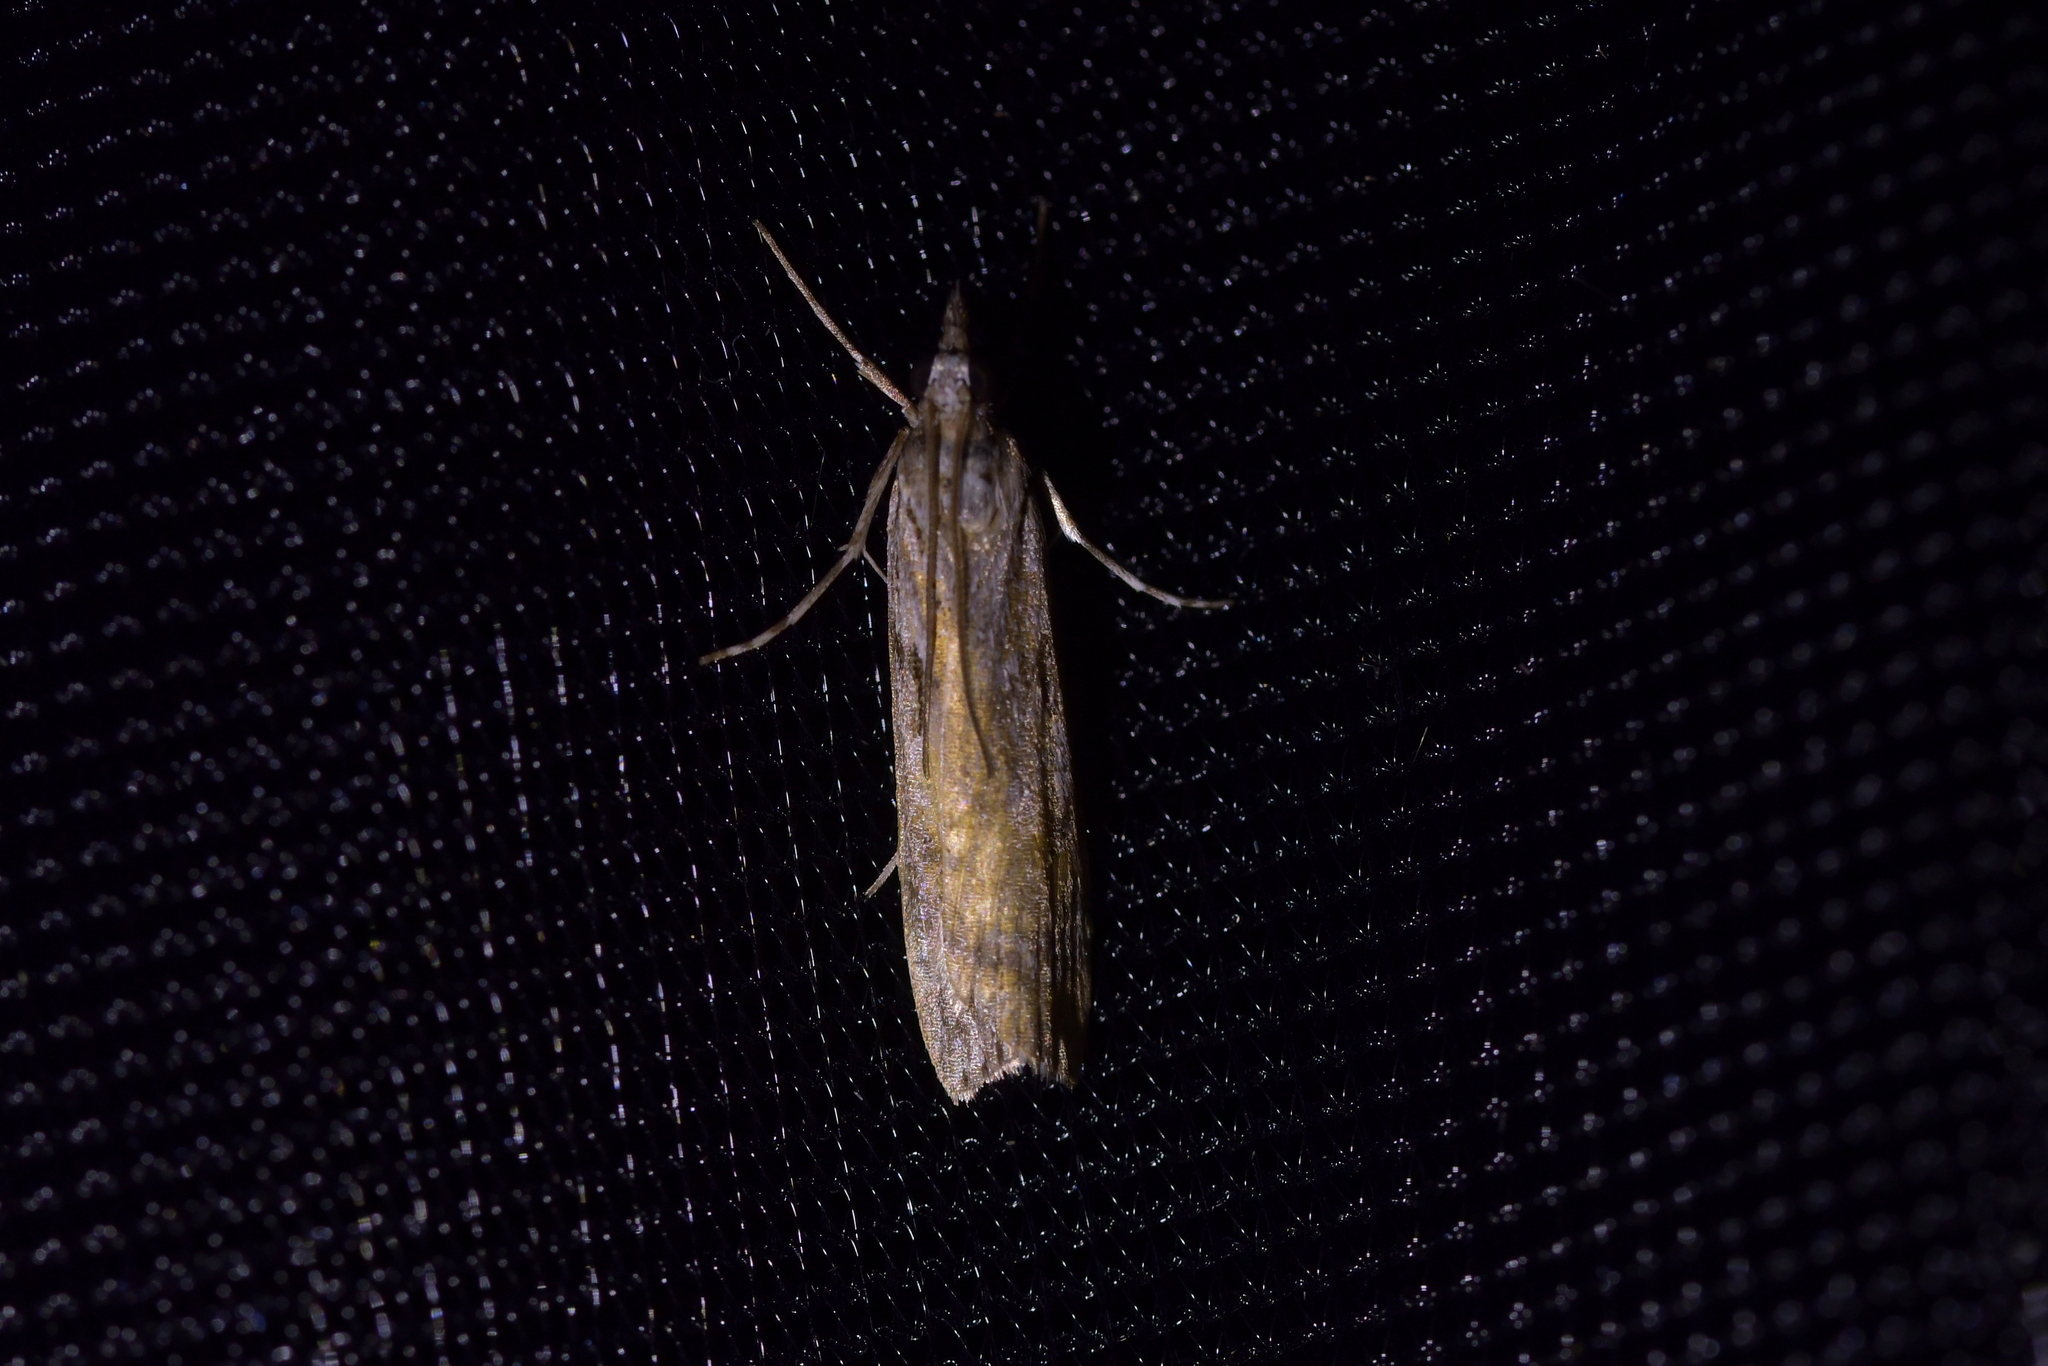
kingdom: Animalia
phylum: Arthropoda
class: Insecta
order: Lepidoptera
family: Crambidae
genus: Scoparia
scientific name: Scoparia halopis
